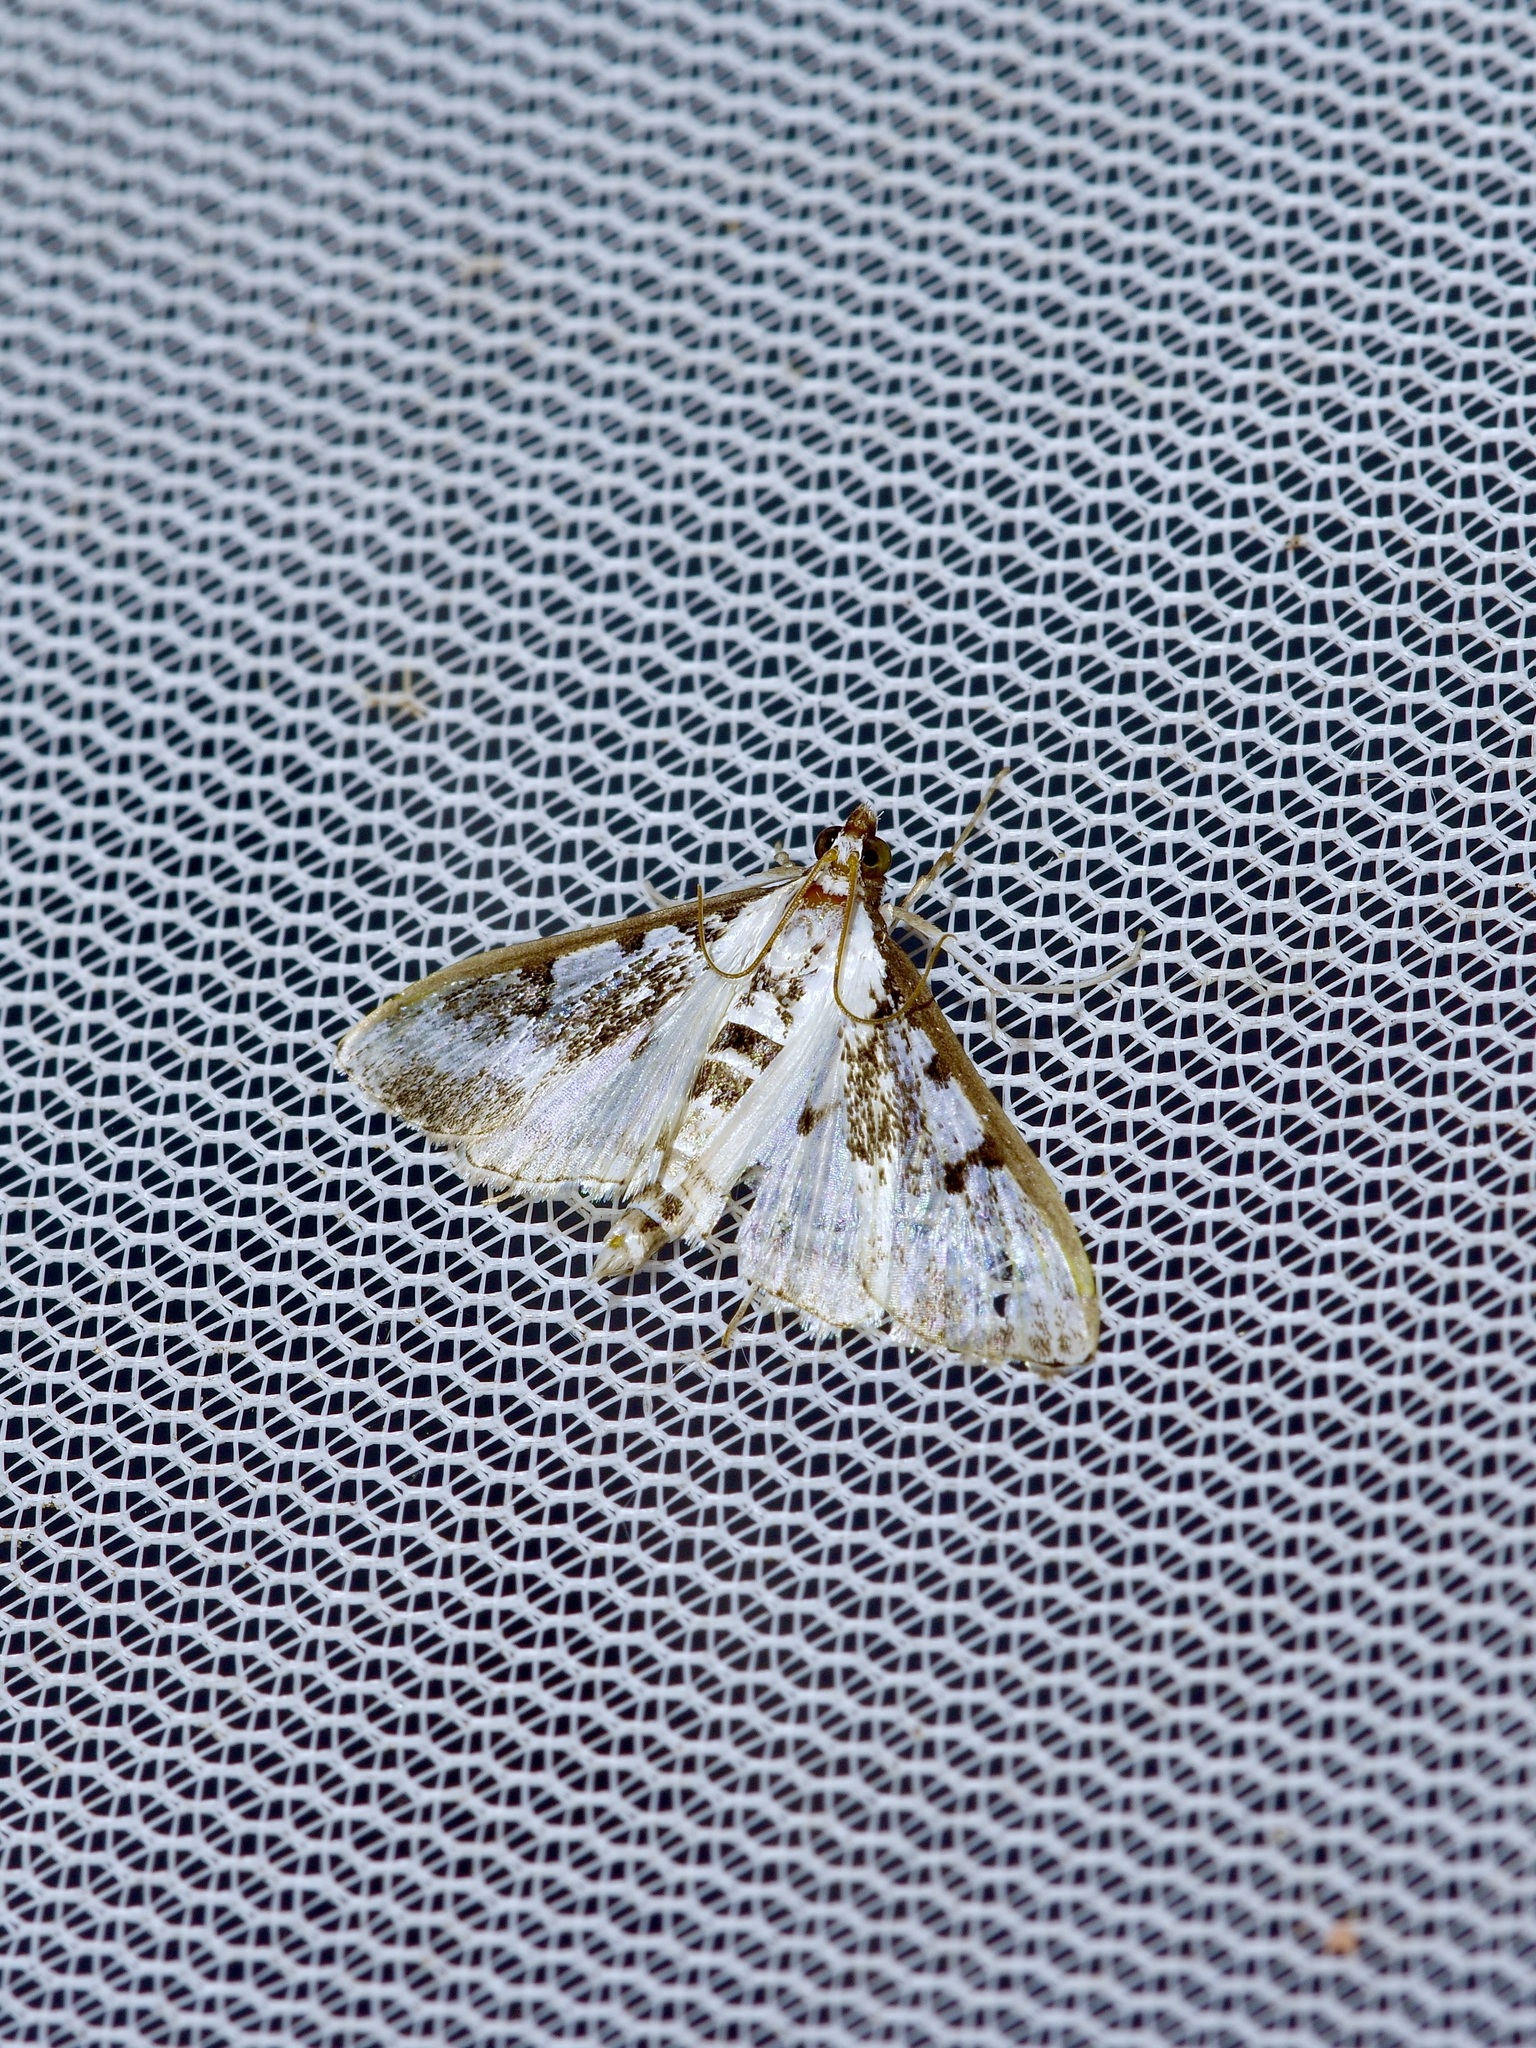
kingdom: Animalia
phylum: Arthropoda
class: Insecta
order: Lepidoptera
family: Crambidae
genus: Palpita
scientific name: Palpita gracilalis
